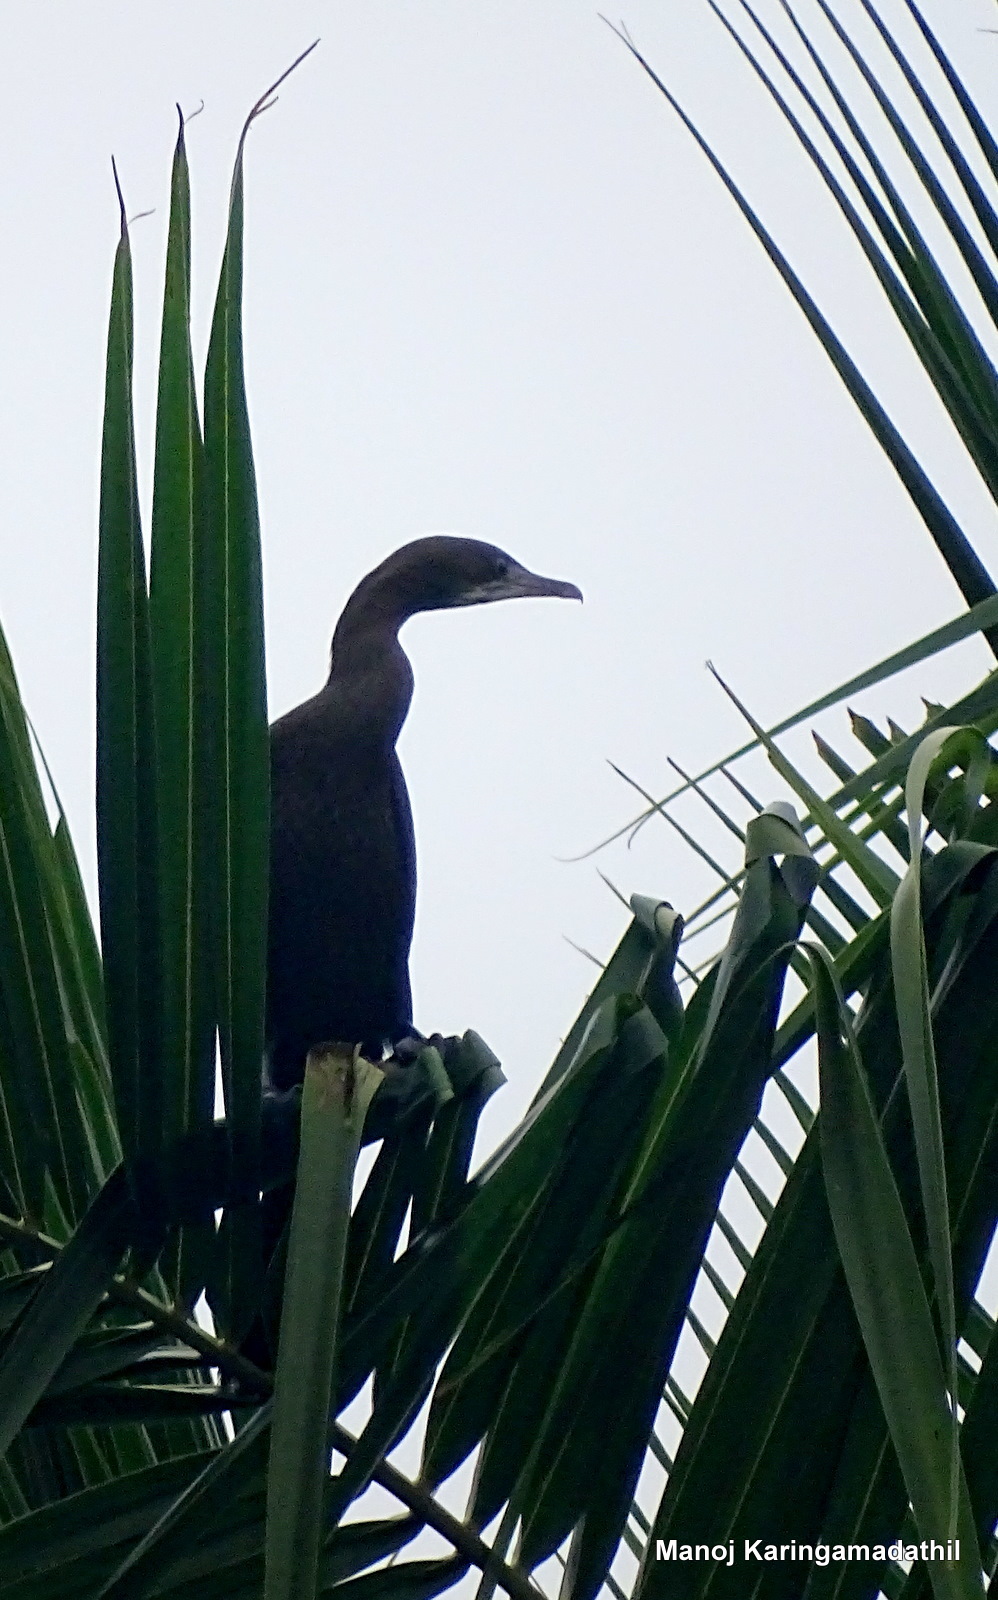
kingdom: Animalia
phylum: Chordata
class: Aves
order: Suliformes
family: Phalacrocoracidae
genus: Microcarbo
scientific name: Microcarbo niger
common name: Little cormorant
